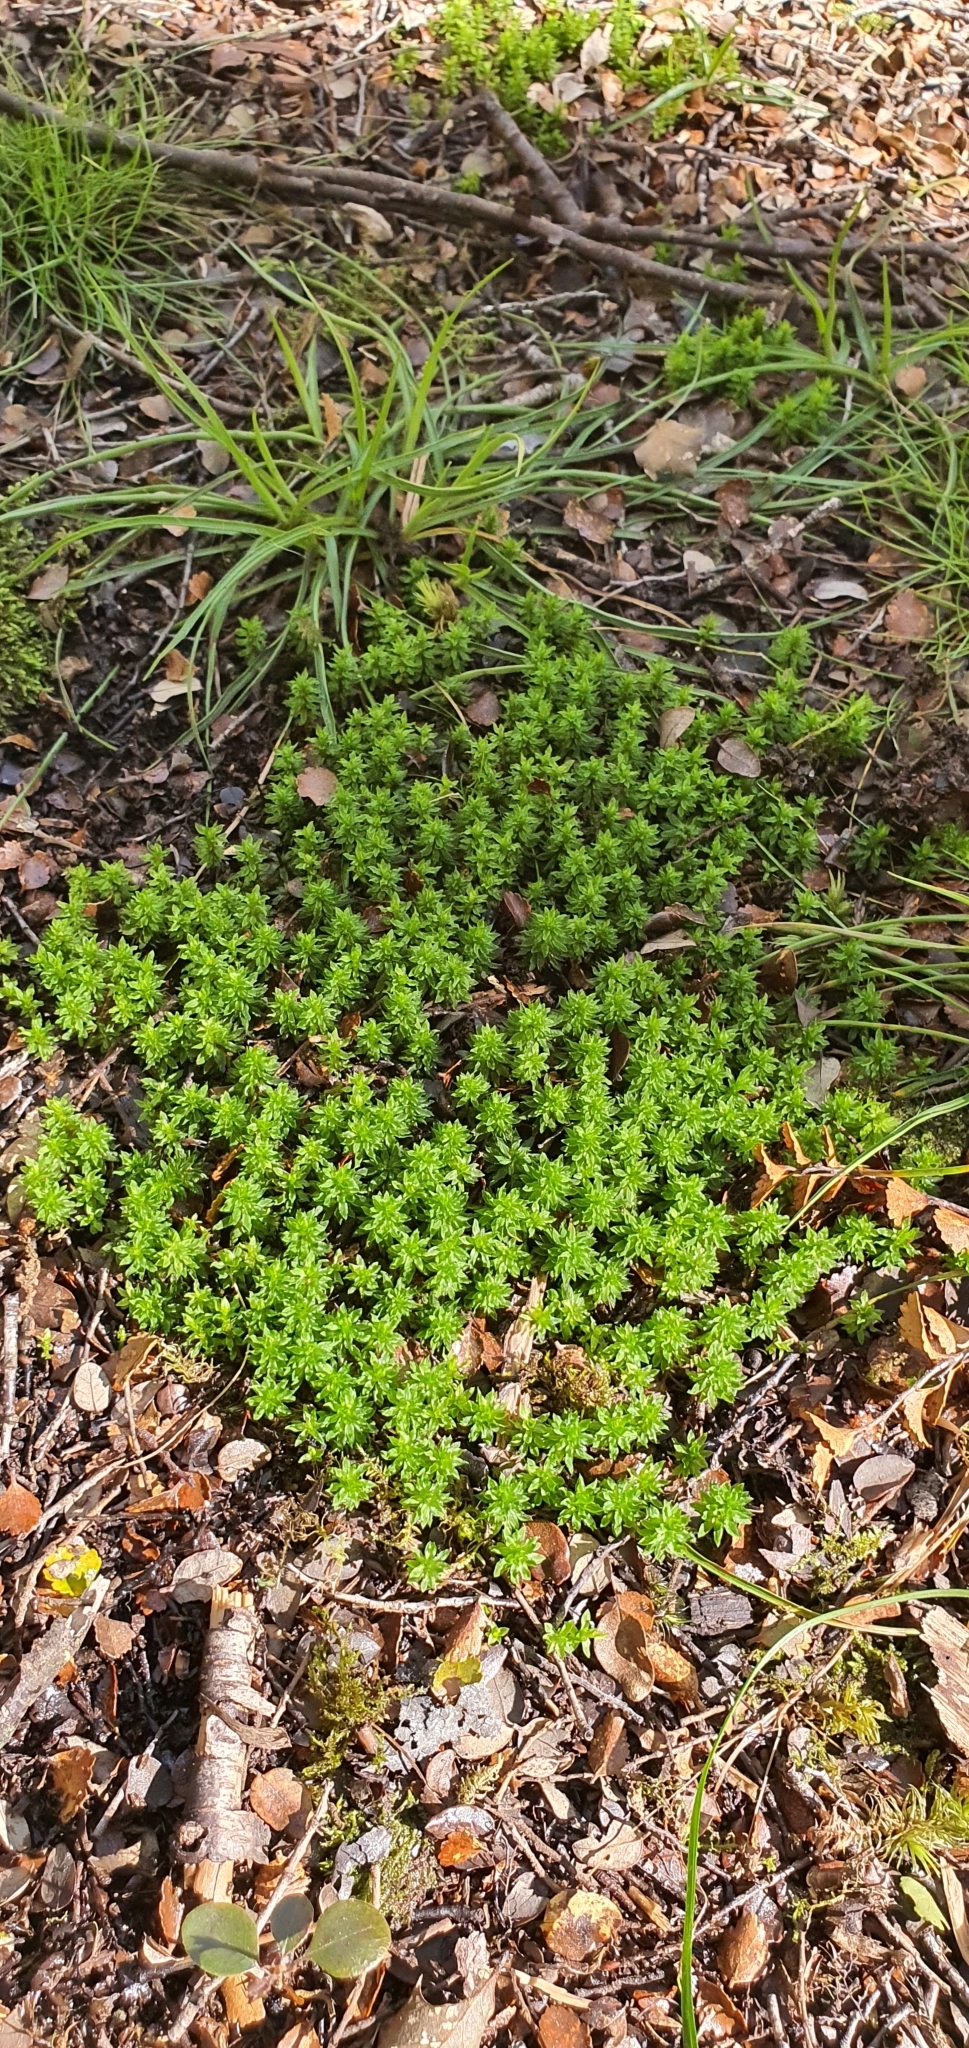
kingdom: Plantae
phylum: Bryophyta
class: Polytrichopsida
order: Polytrichales
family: Polytrichaceae
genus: Pogonatum
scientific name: Pogonatum subulatum
